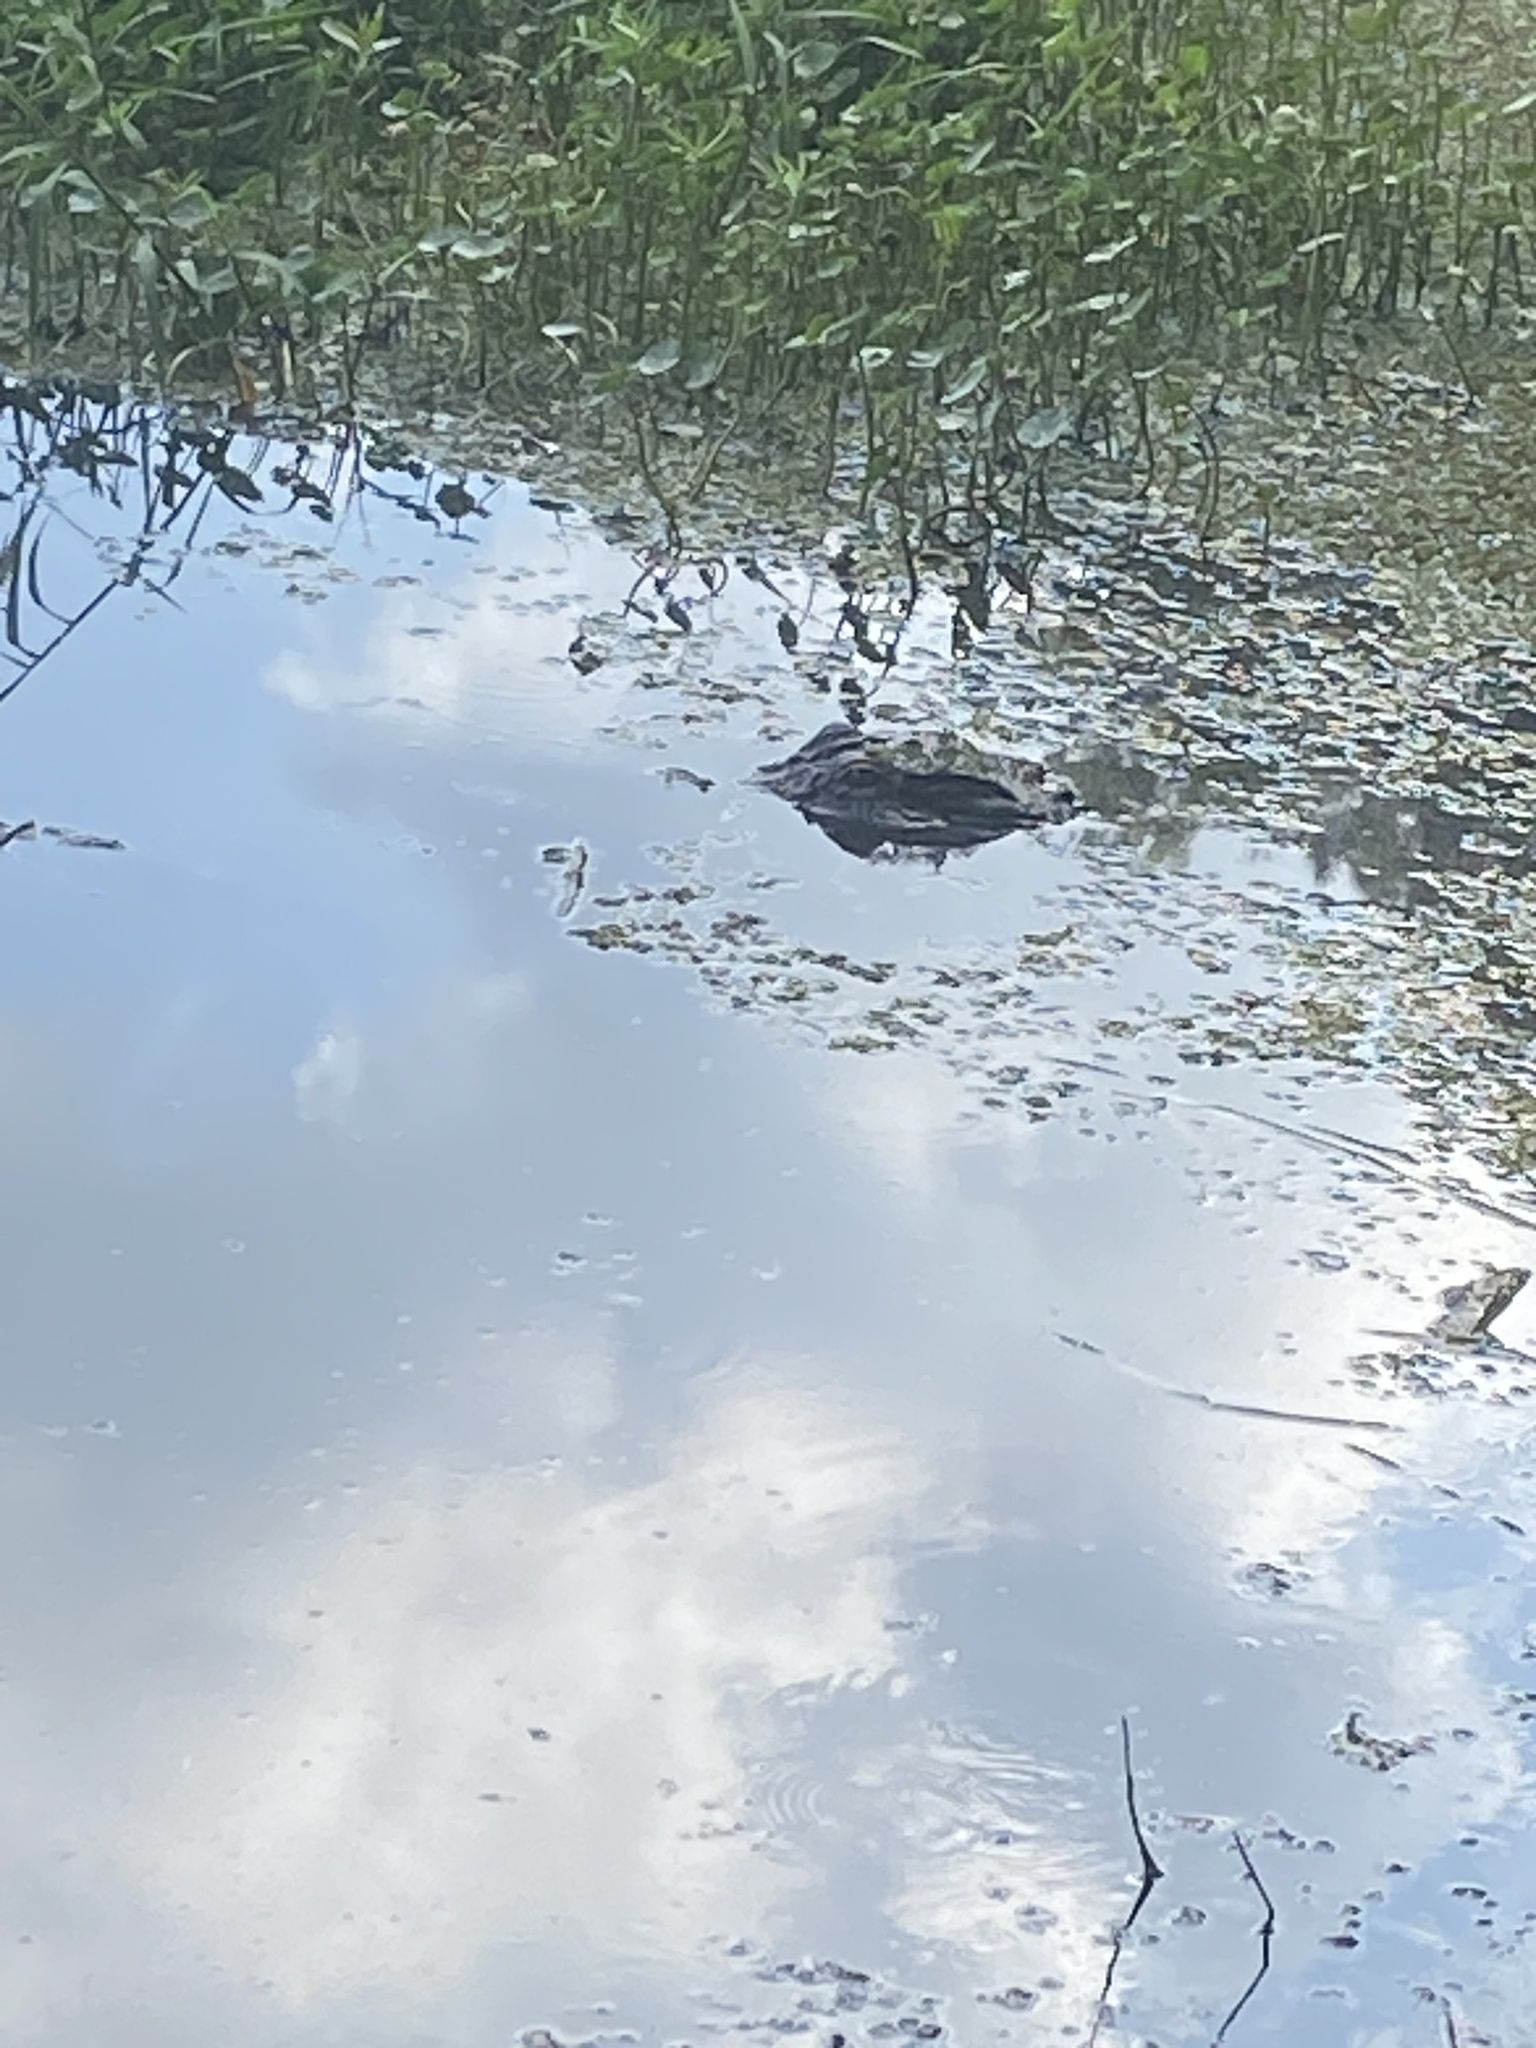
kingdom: Animalia
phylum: Chordata
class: Crocodylia
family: Alligatoridae
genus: Alligator
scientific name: Alligator mississippiensis
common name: American alligator
